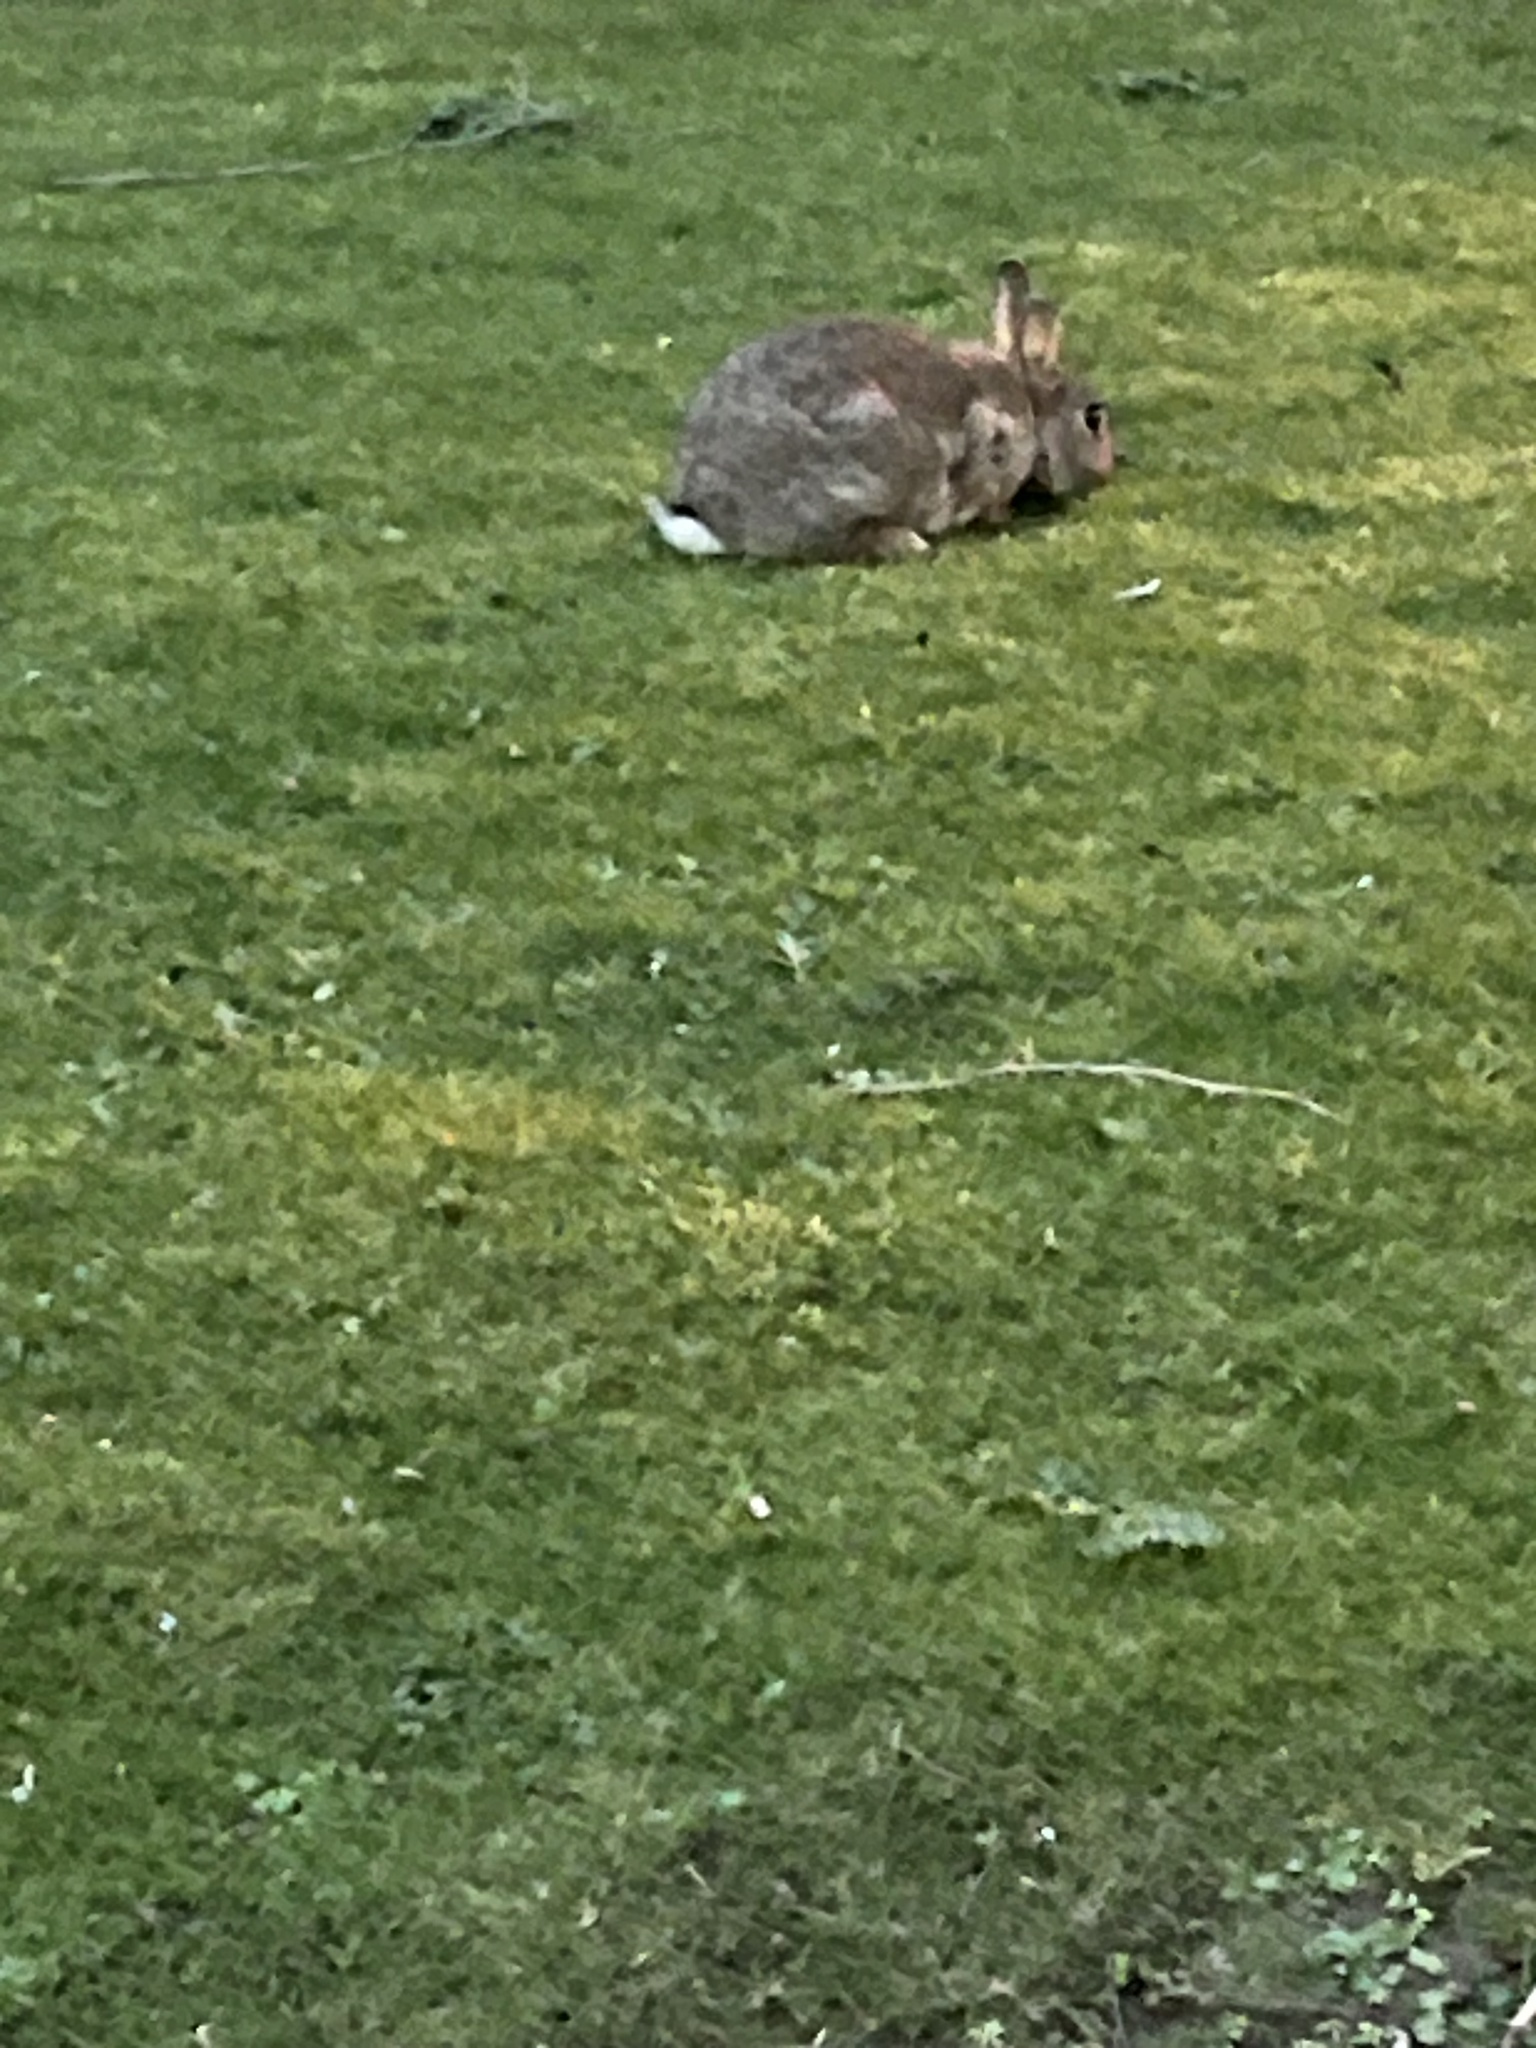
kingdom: Animalia
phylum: Chordata
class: Mammalia
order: Lagomorpha
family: Leporidae
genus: Oryctolagus
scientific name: Oryctolagus cuniculus
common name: European rabbit
